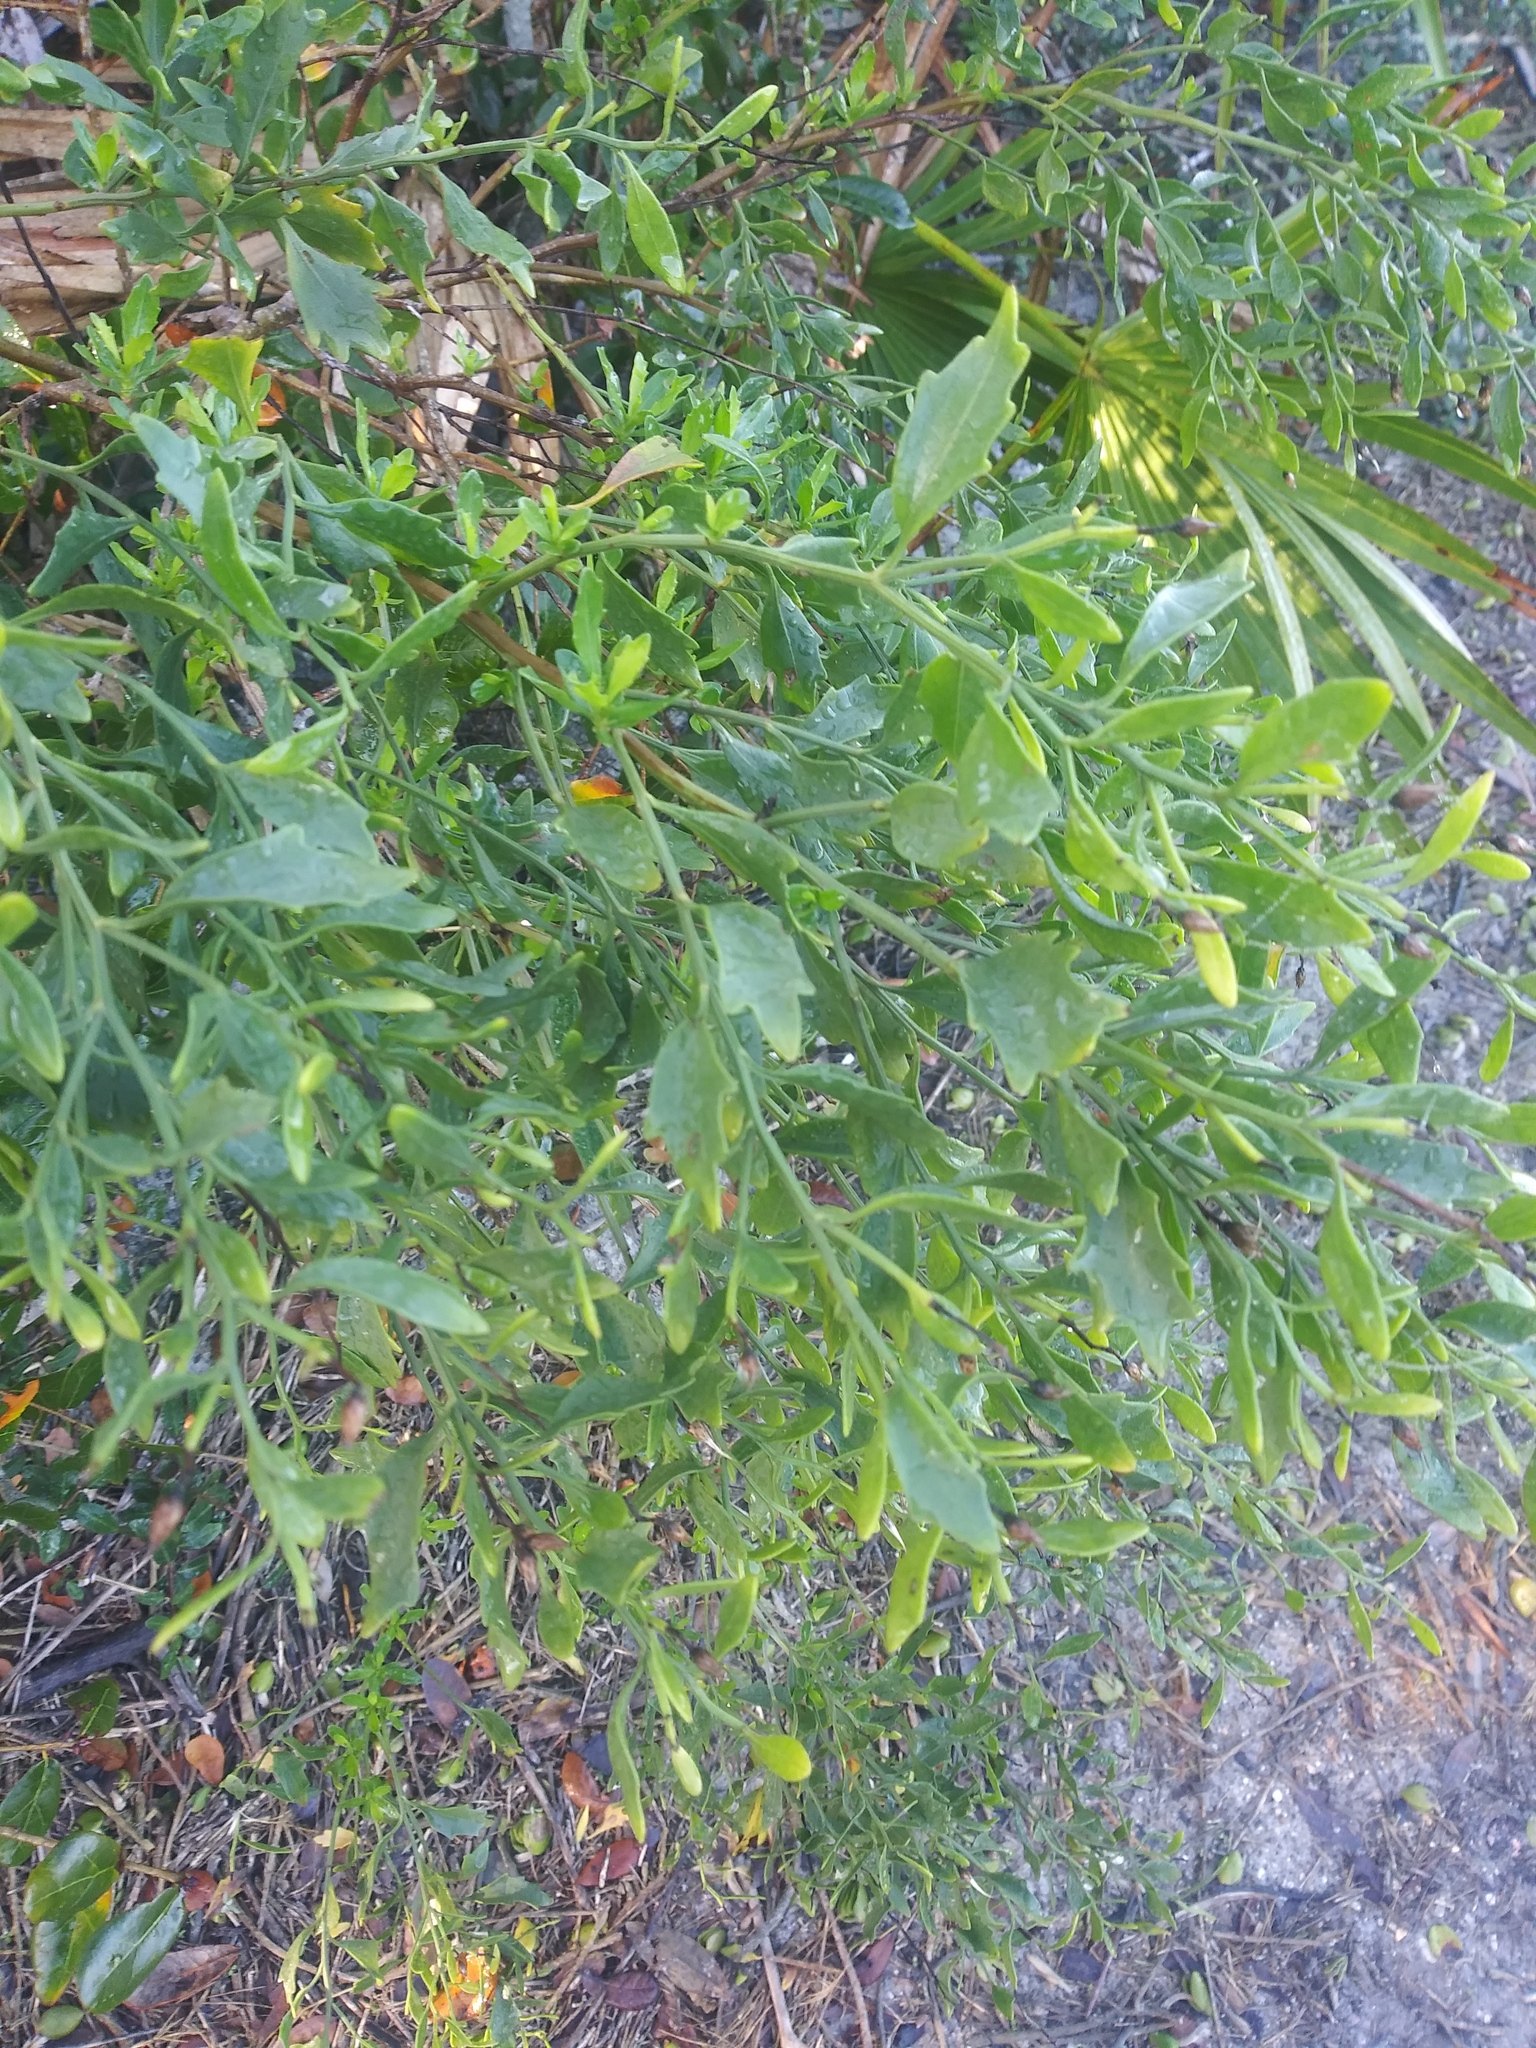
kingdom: Plantae
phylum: Tracheophyta
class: Magnoliopsida
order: Asterales
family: Asteraceae
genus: Baccharis
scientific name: Baccharis halimifolia
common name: Eastern baccharis
